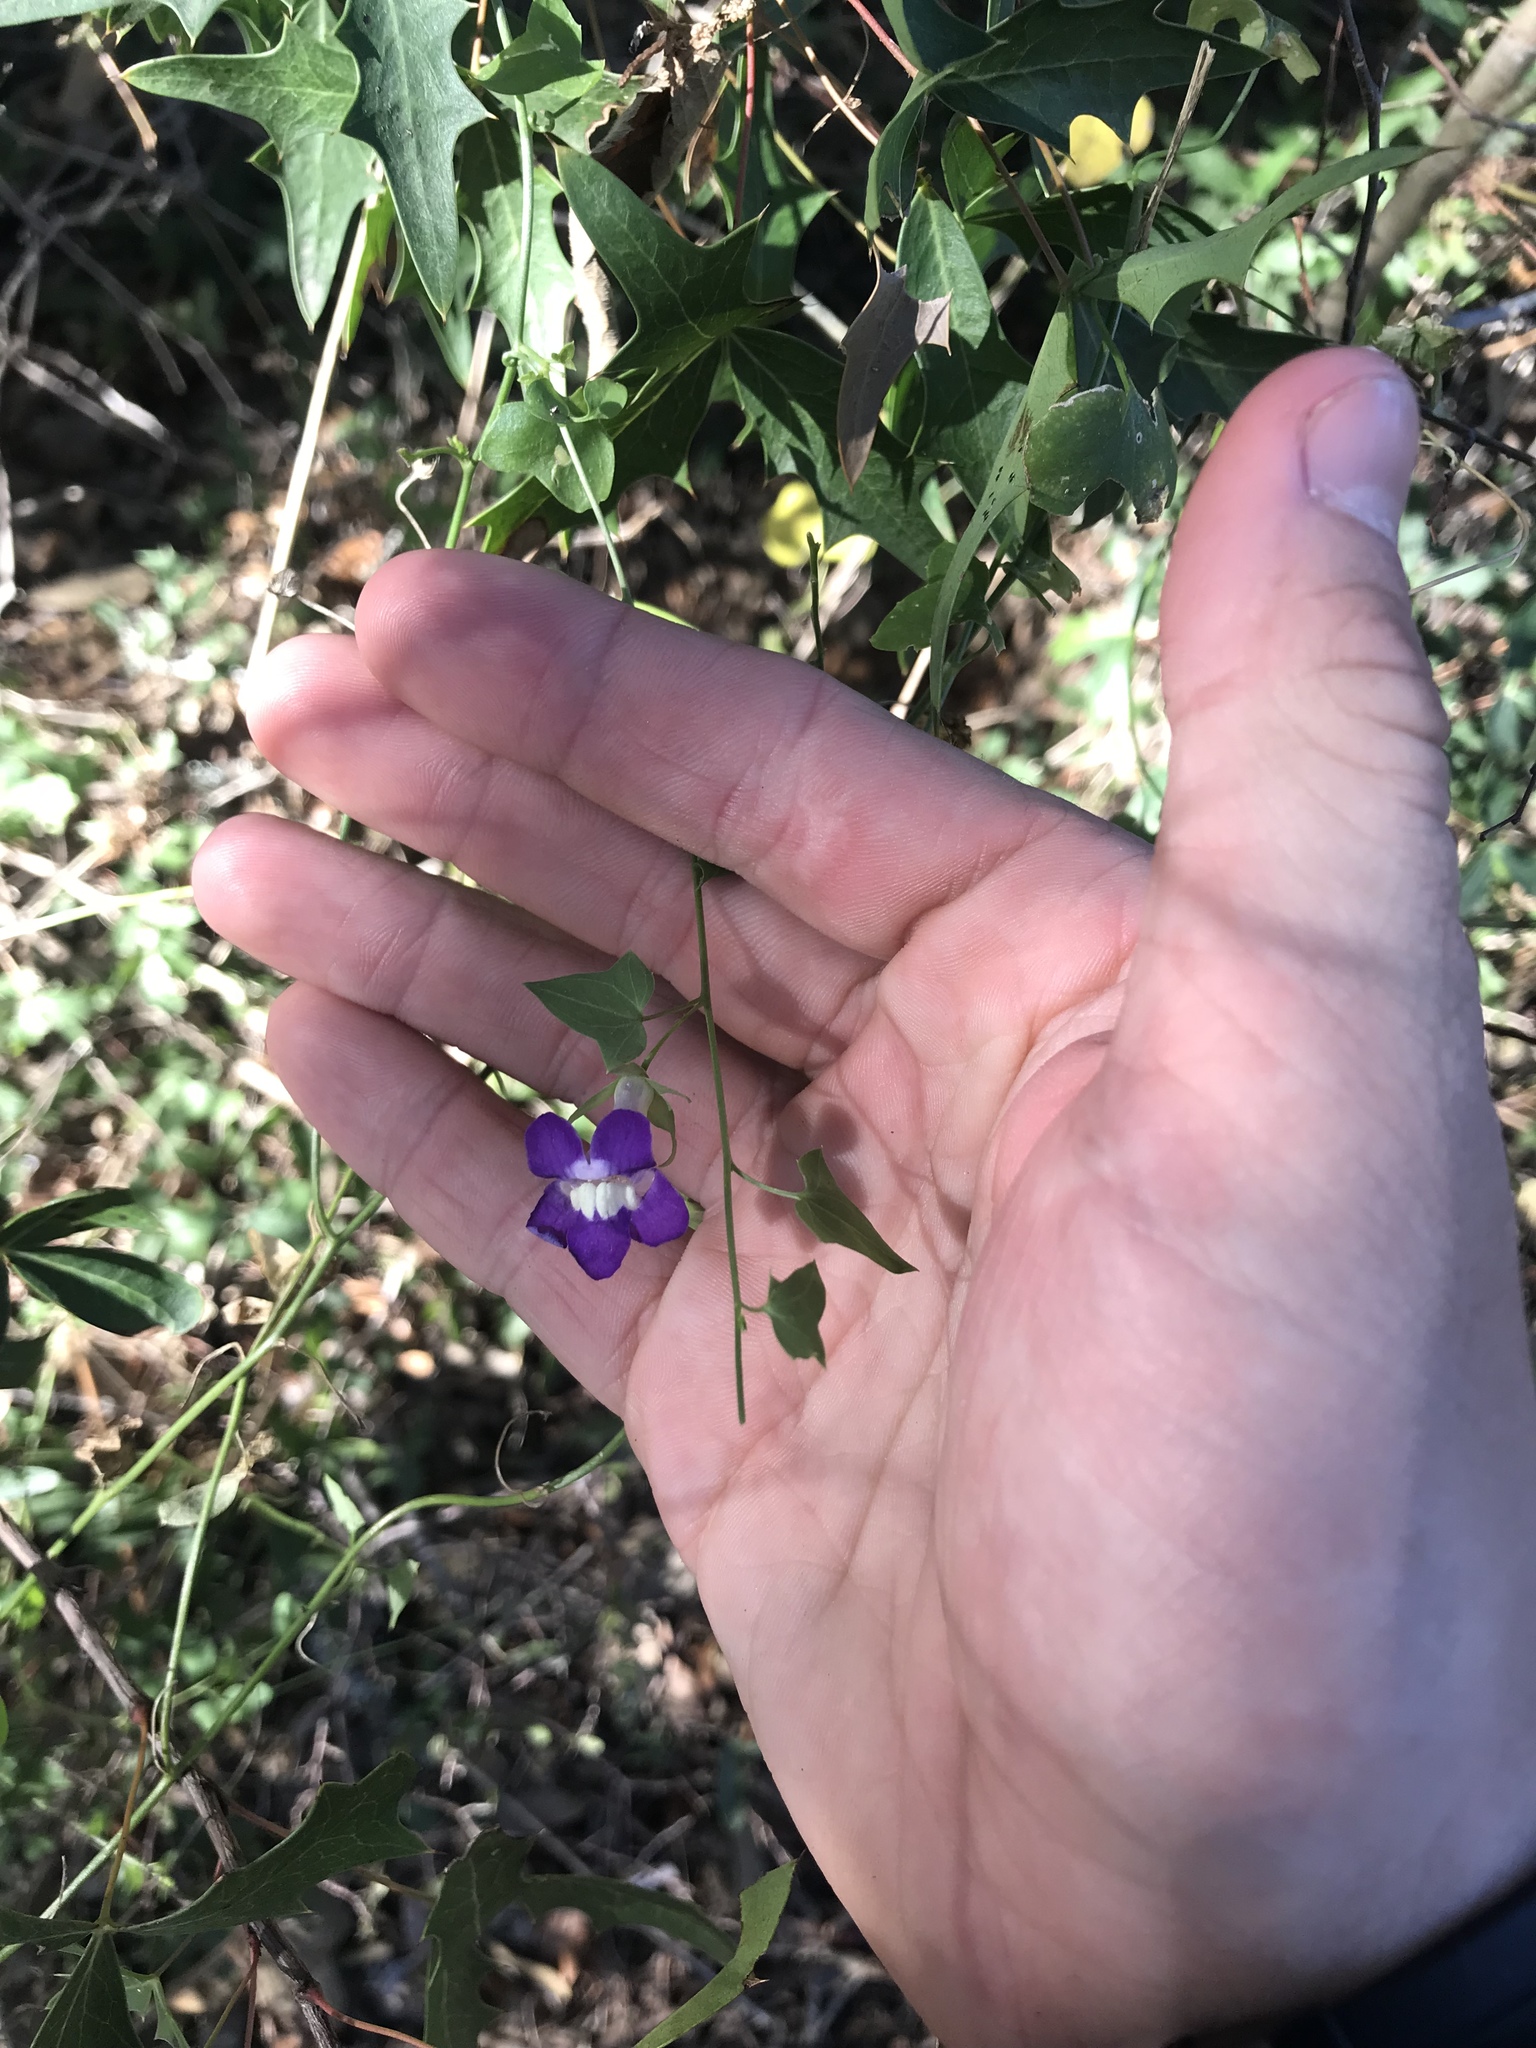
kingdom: Plantae
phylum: Tracheophyta
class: Magnoliopsida
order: Lamiales
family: Plantaginaceae
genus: Maurandella
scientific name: Maurandella antirrhiniflora
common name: Violet twining-snapdragon
